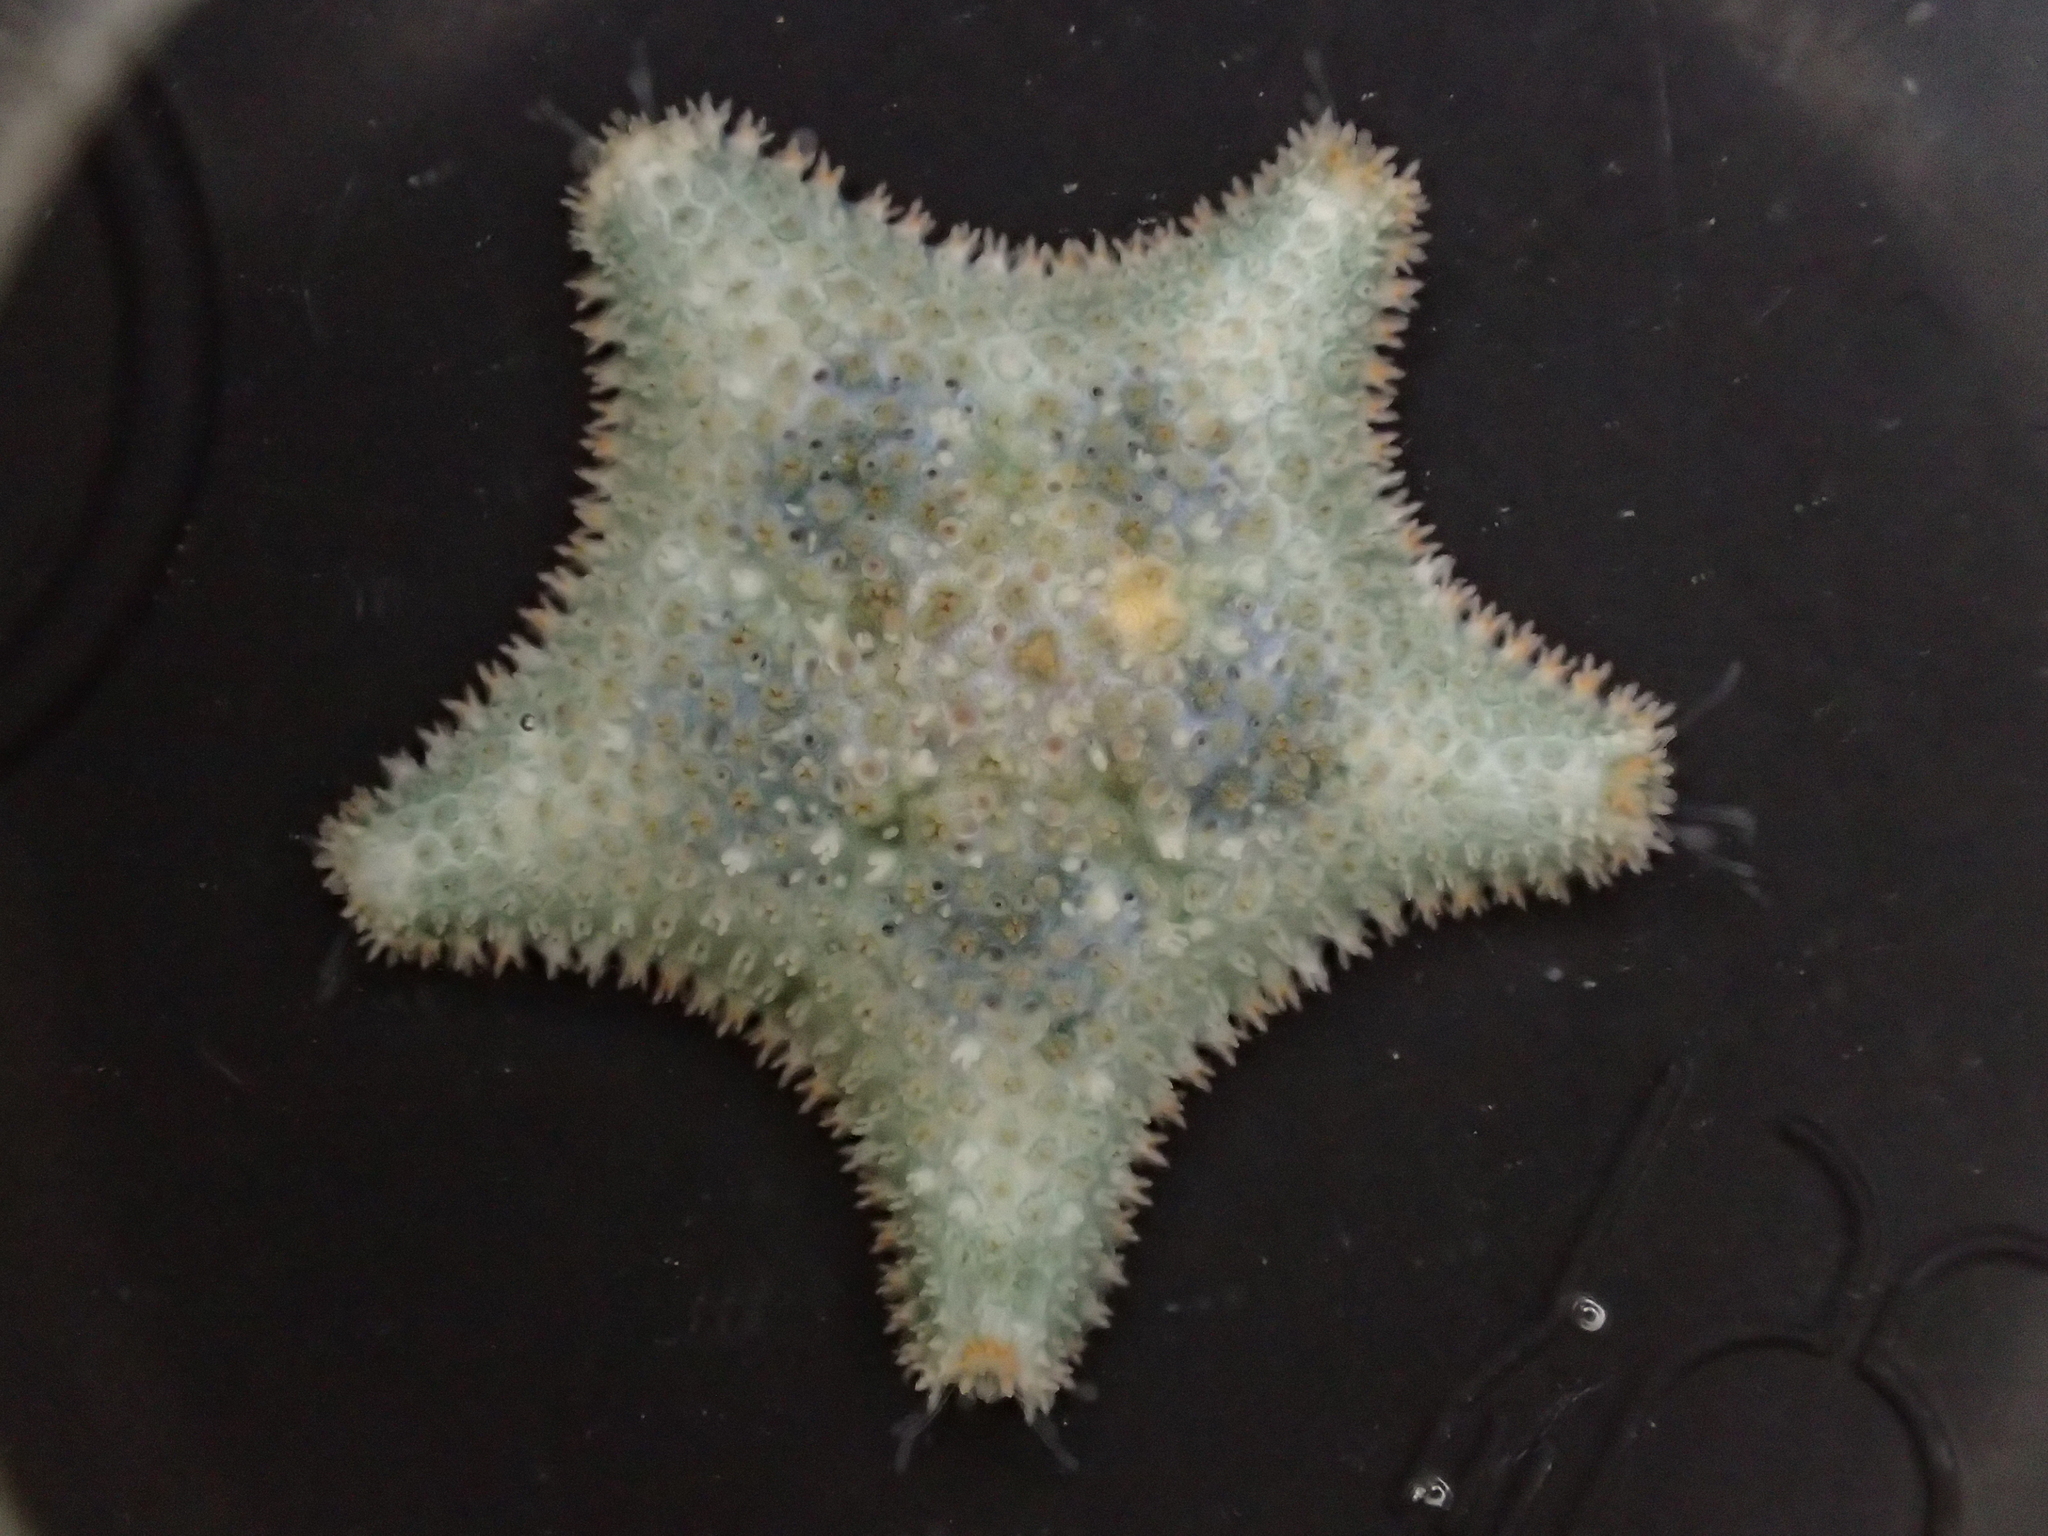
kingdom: Animalia
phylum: Echinodermata
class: Asteroidea
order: Valvatida
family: Asterinidae
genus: Asterina
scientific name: Asterina gibbosa
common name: Cushion star
